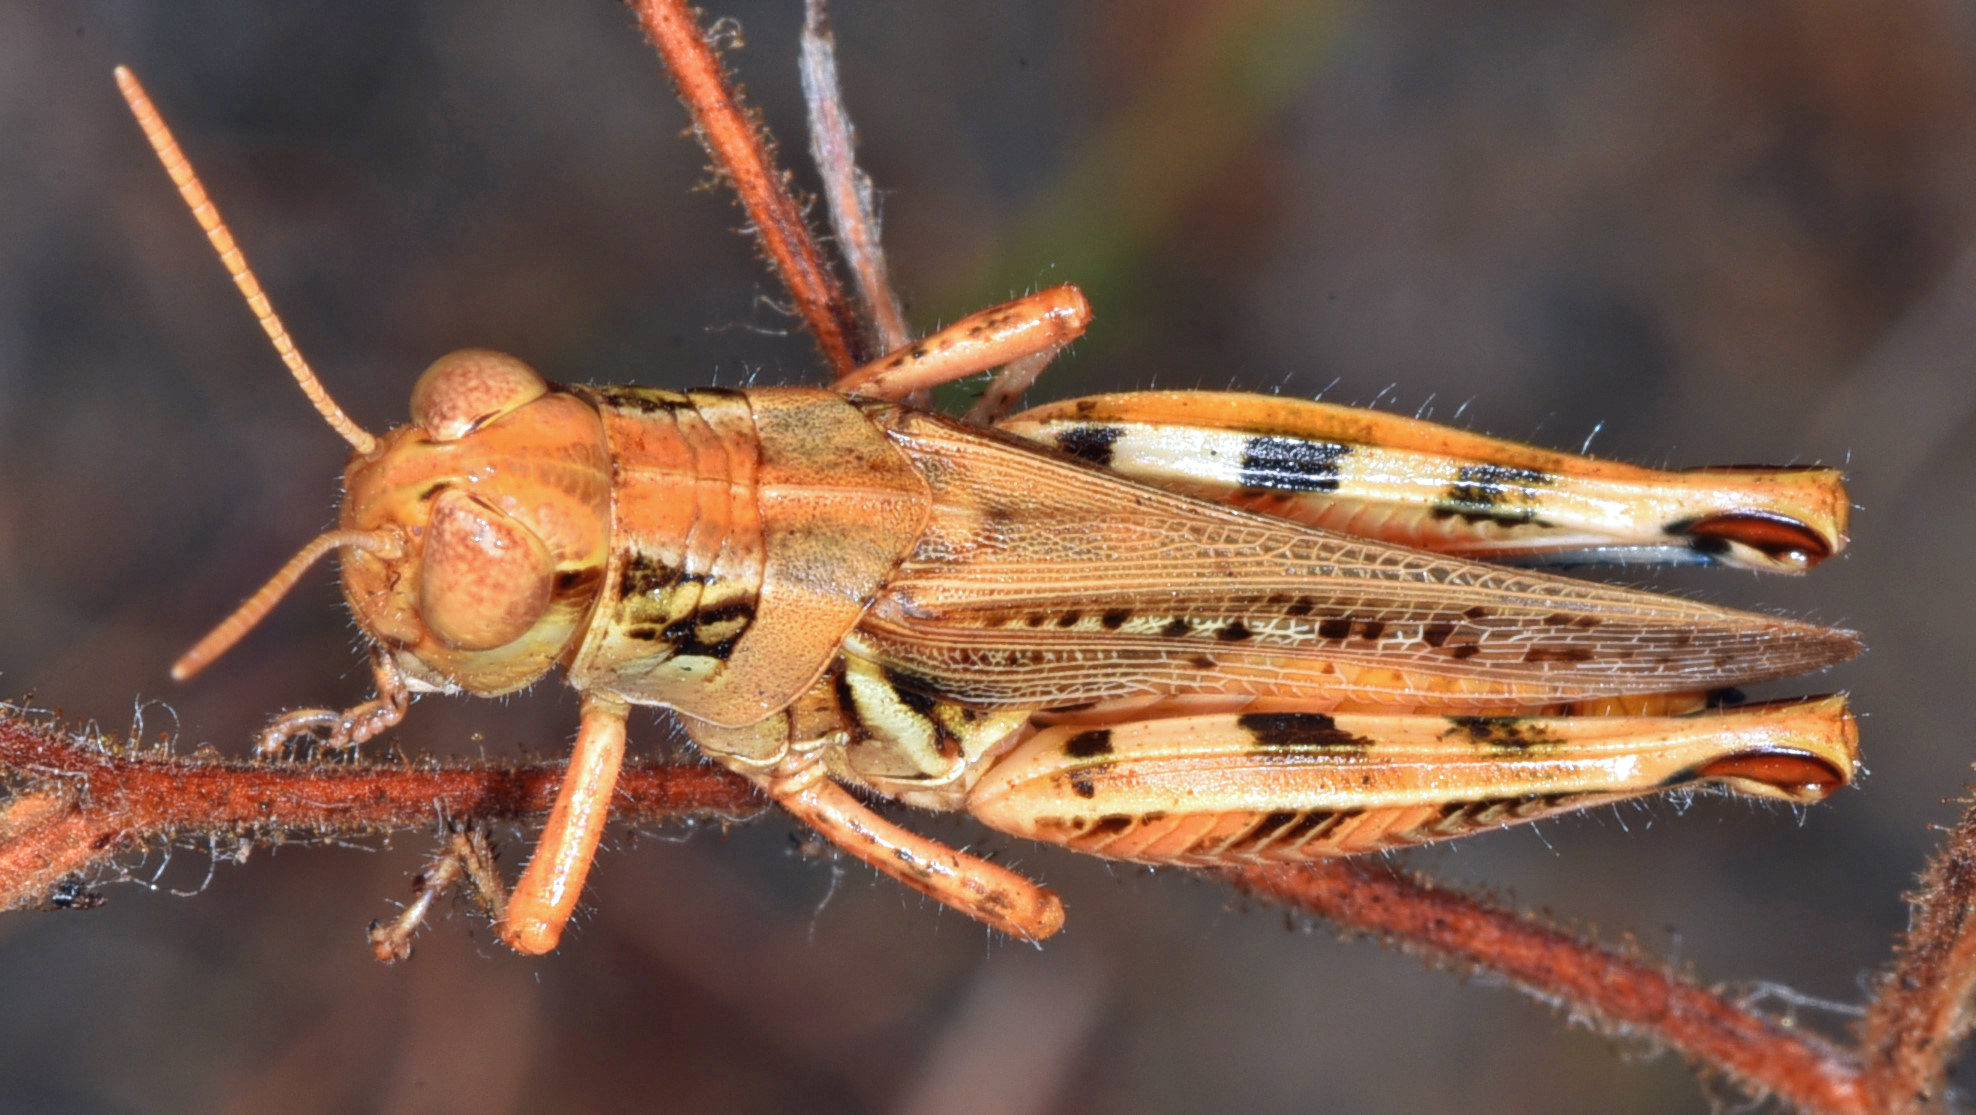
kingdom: Animalia
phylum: Arthropoda
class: Insecta
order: Orthoptera
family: Acrididae
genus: Melanoplus
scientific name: Melanoplus devastator
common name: Devastating grasshopper
